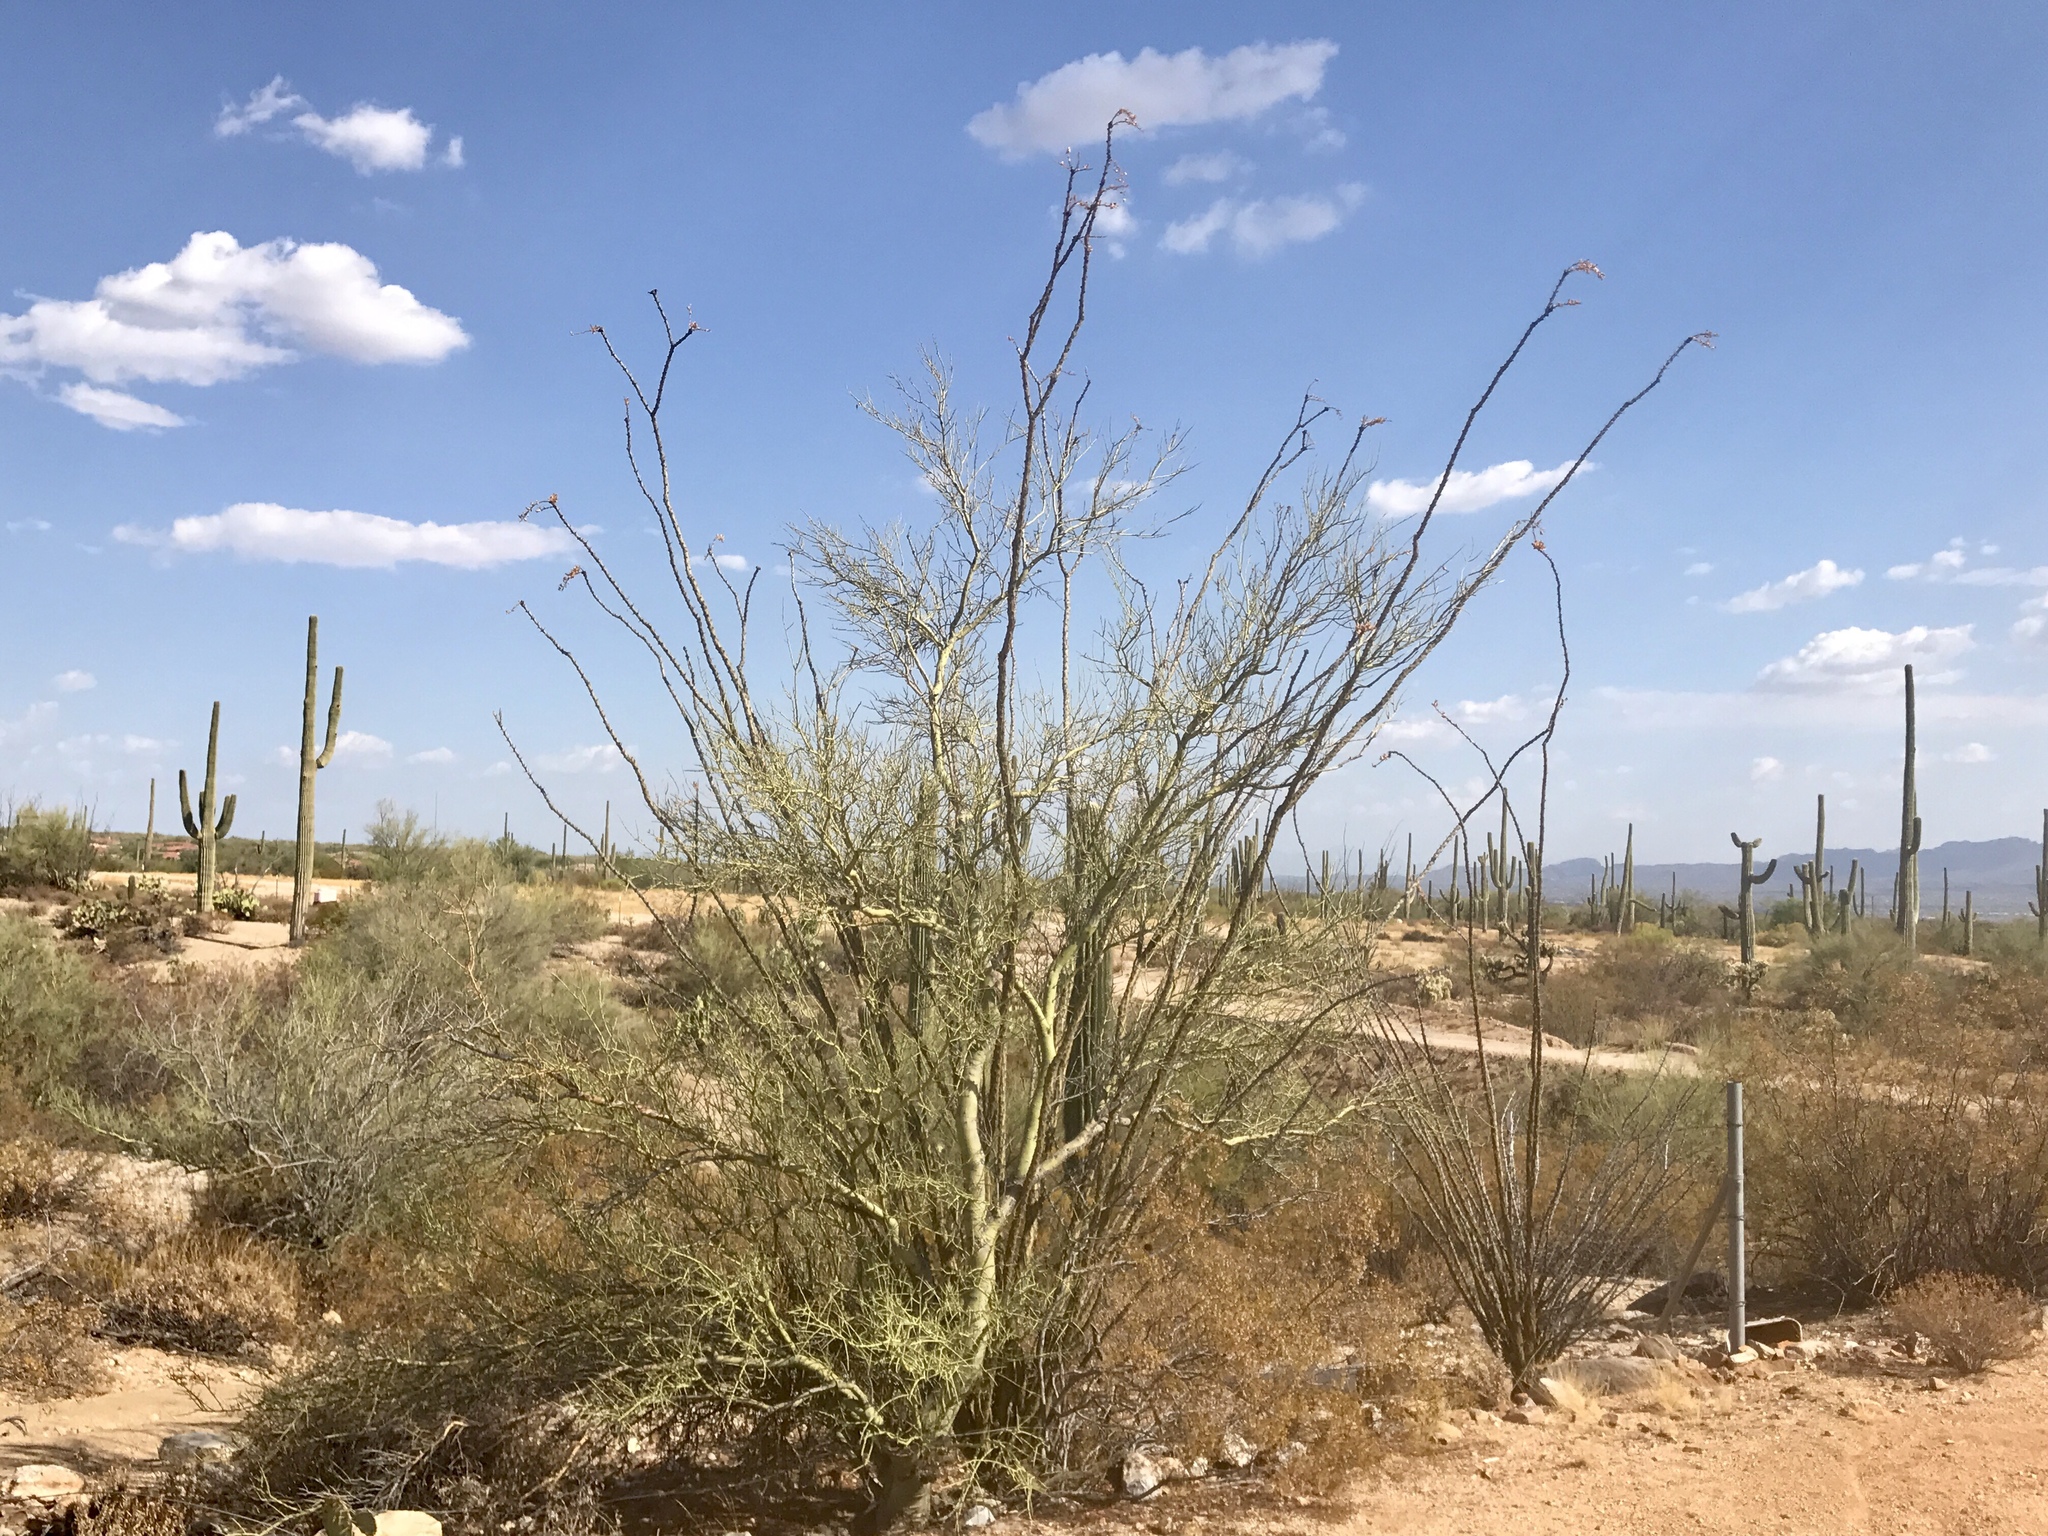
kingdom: Plantae
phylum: Tracheophyta
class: Magnoliopsida
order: Ericales
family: Fouquieriaceae
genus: Fouquieria
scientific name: Fouquieria splendens
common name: Vine-cactus
